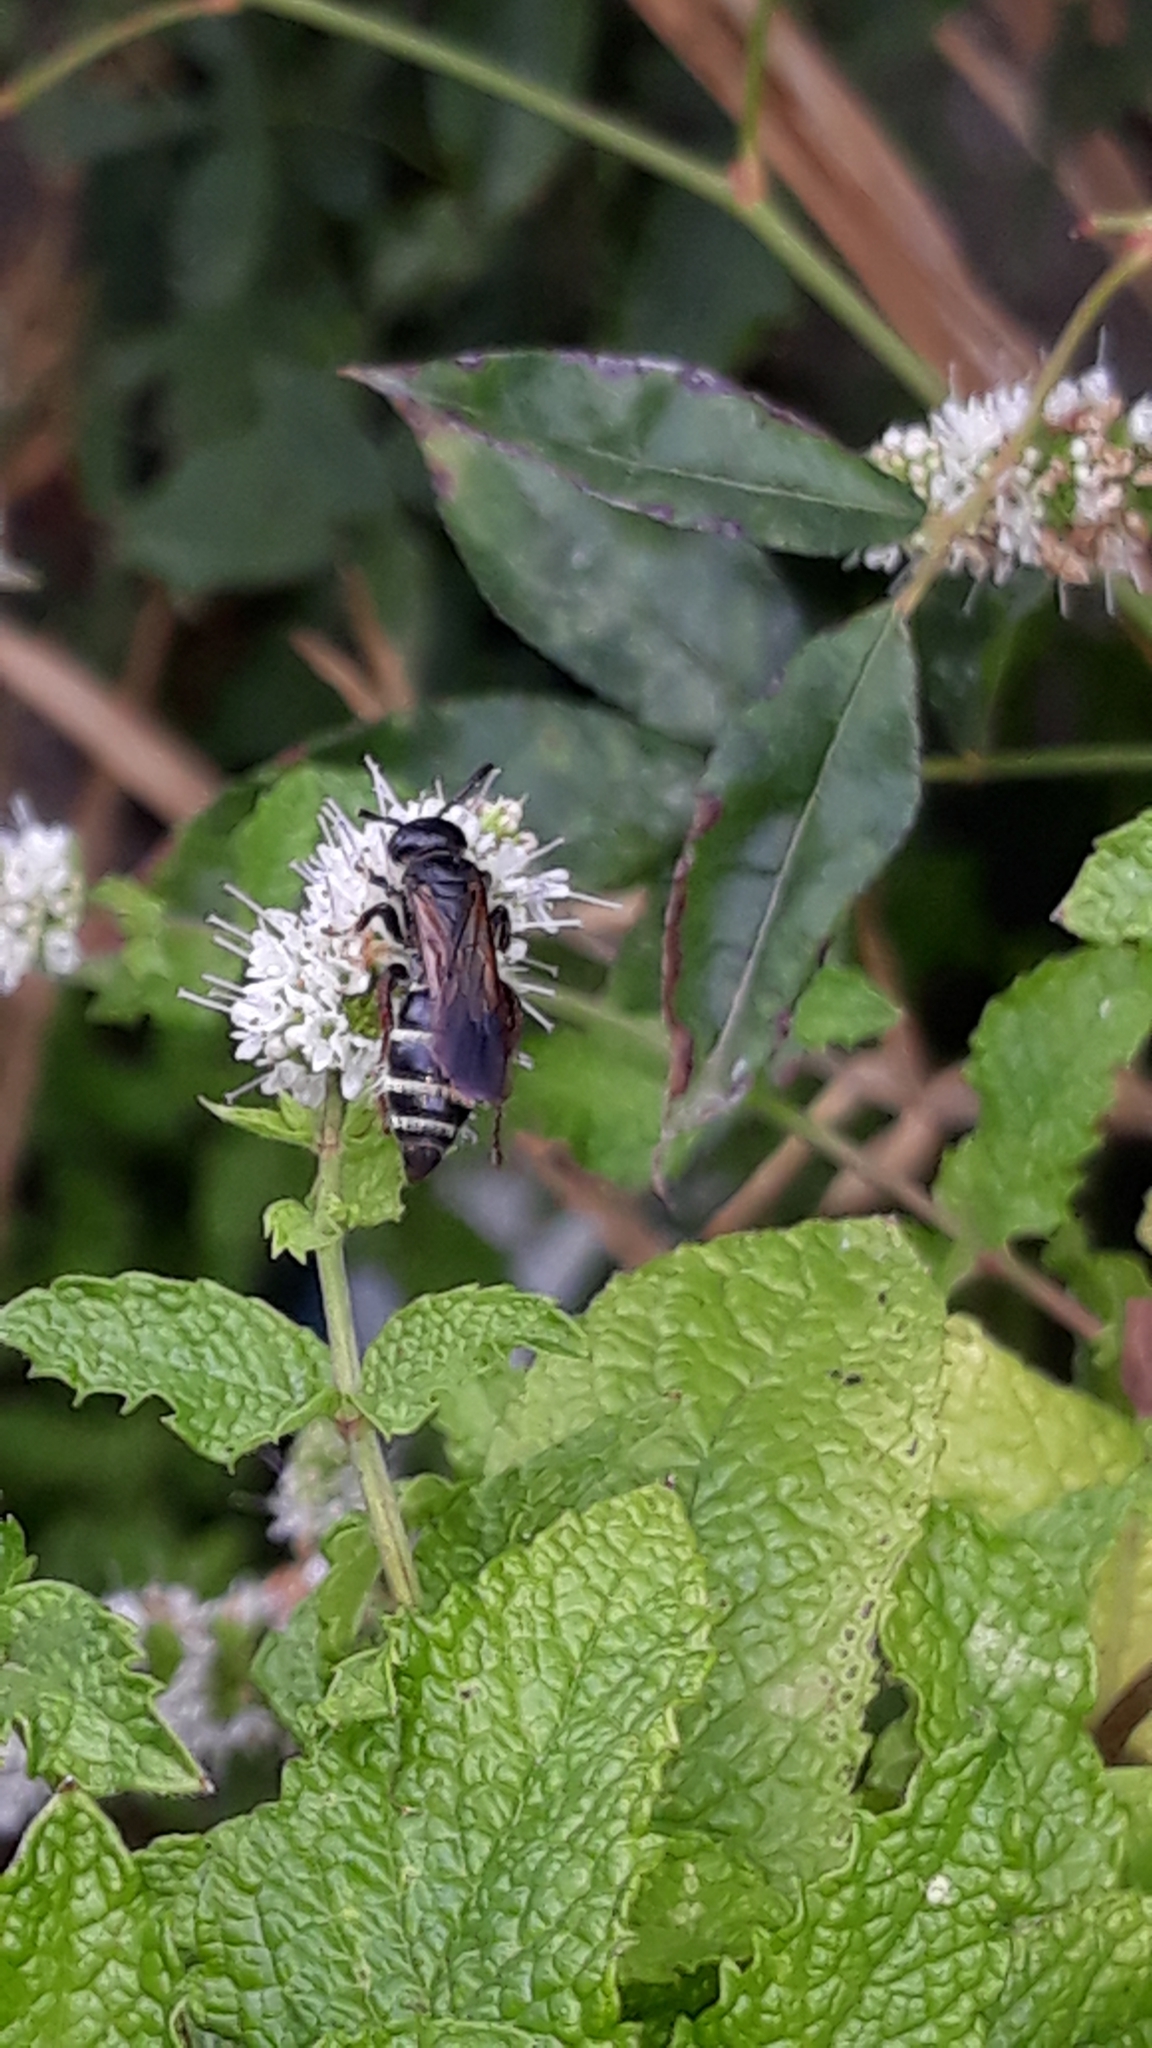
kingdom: Animalia
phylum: Arthropoda
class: Insecta
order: Hymenoptera
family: Scoliidae
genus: Colpa
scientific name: Colpa quinquecincta
